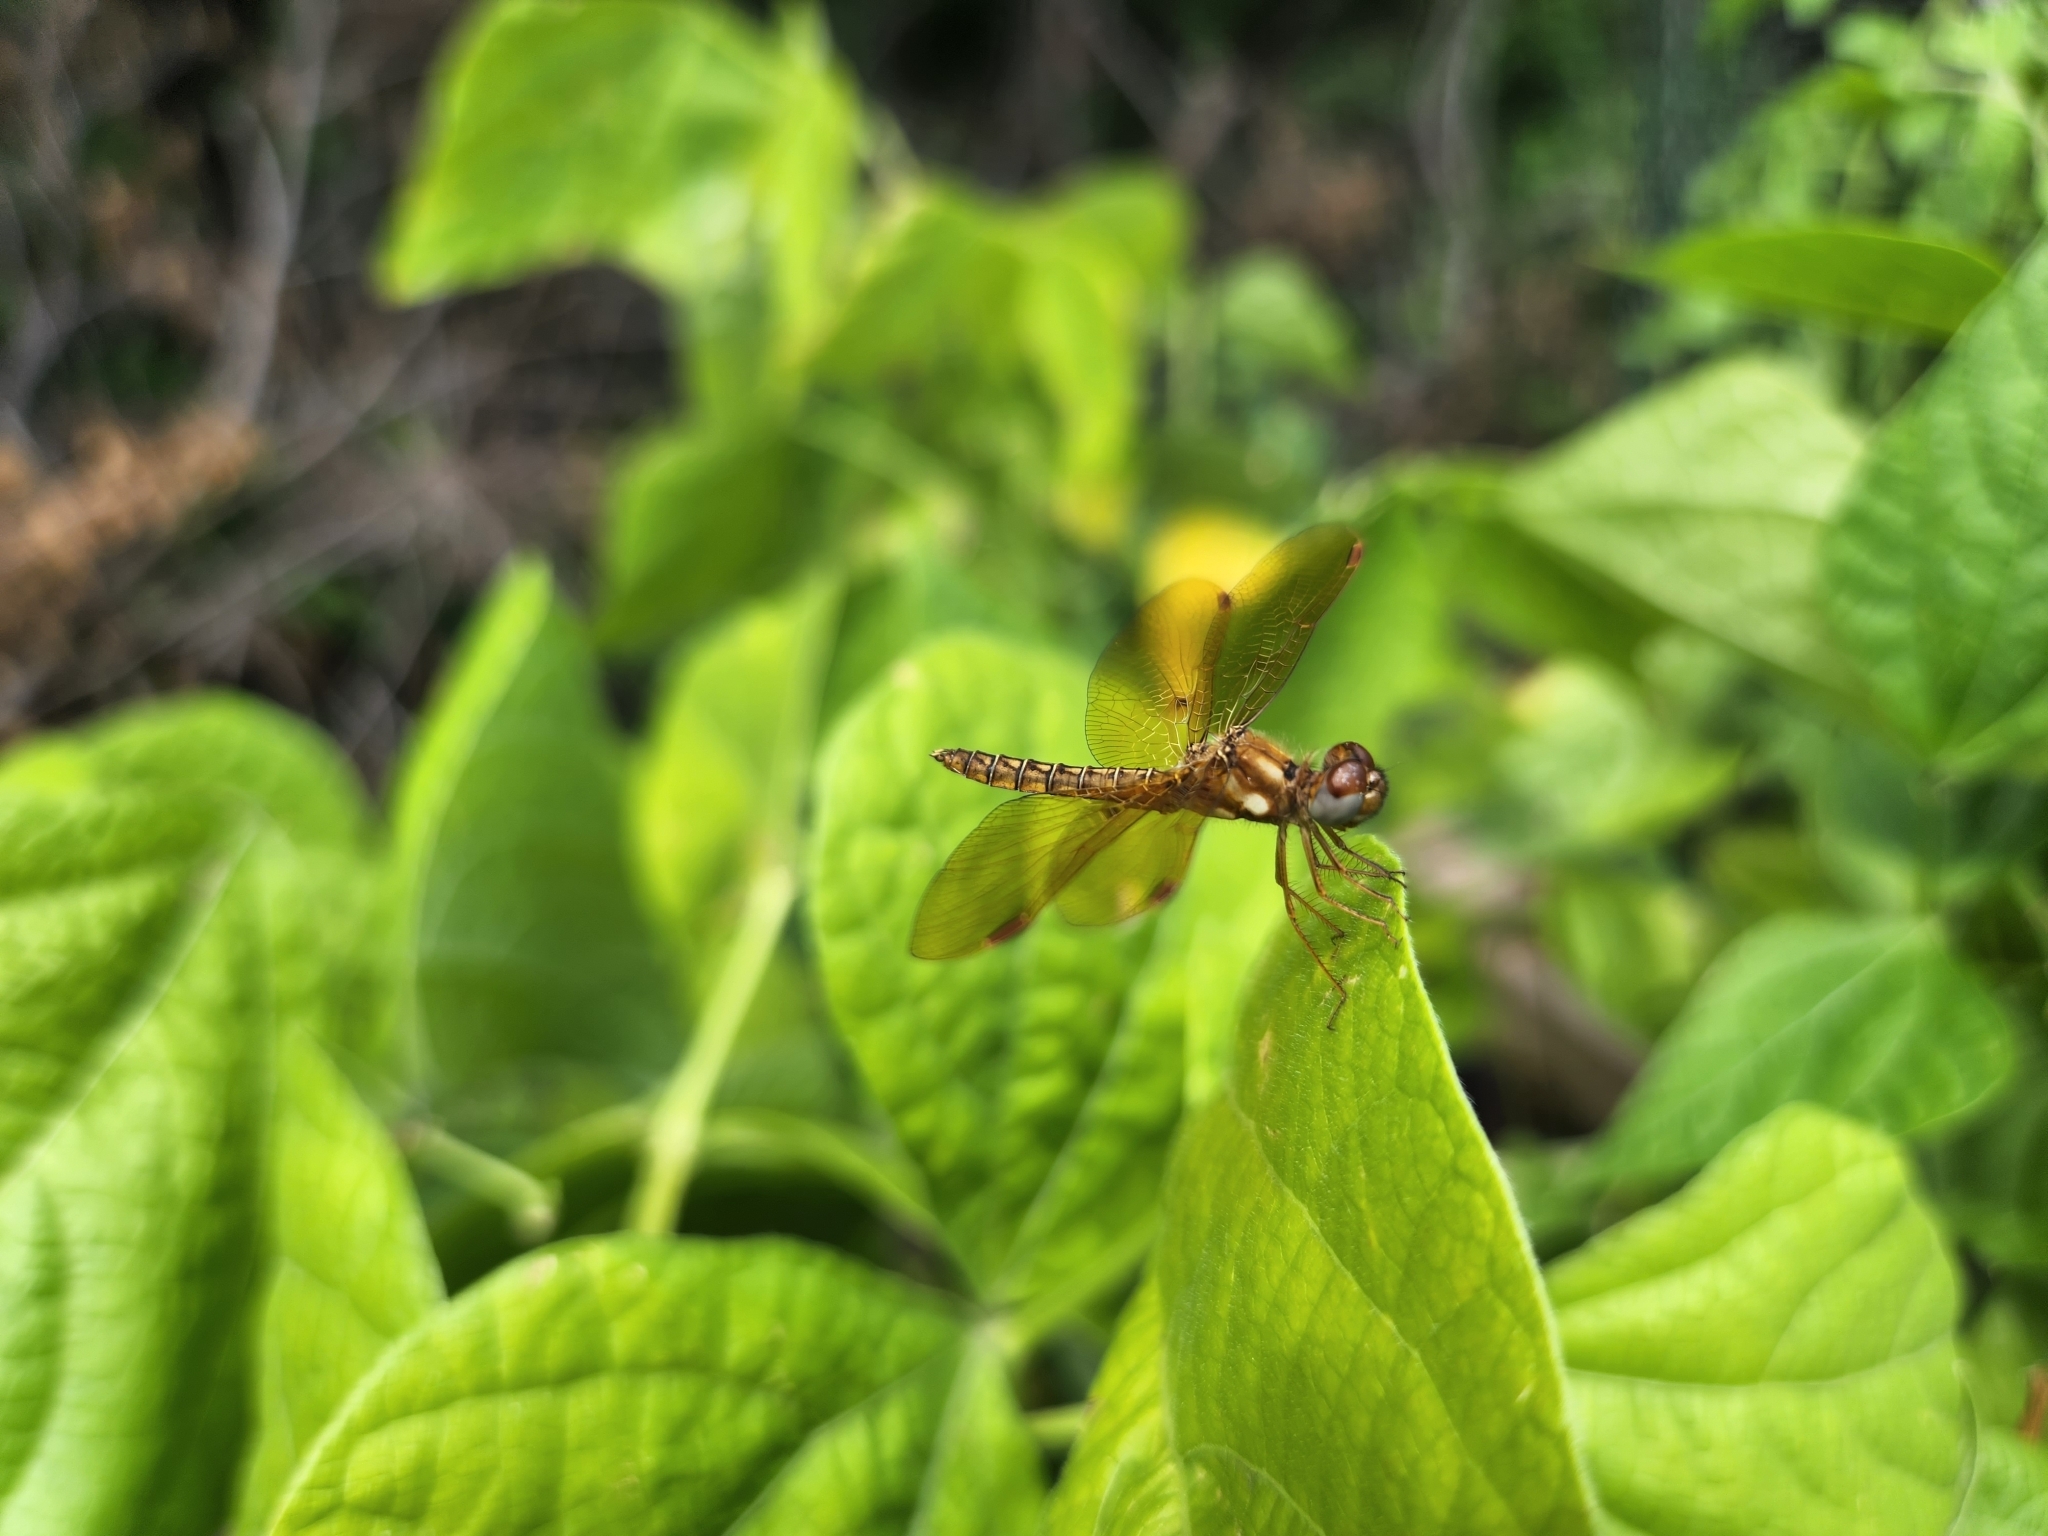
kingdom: Animalia
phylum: Arthropoda
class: Insecta
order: Odonata
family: Libellulidae
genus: Perithemis
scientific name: Perithemis tenera
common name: Eastern amberwing
